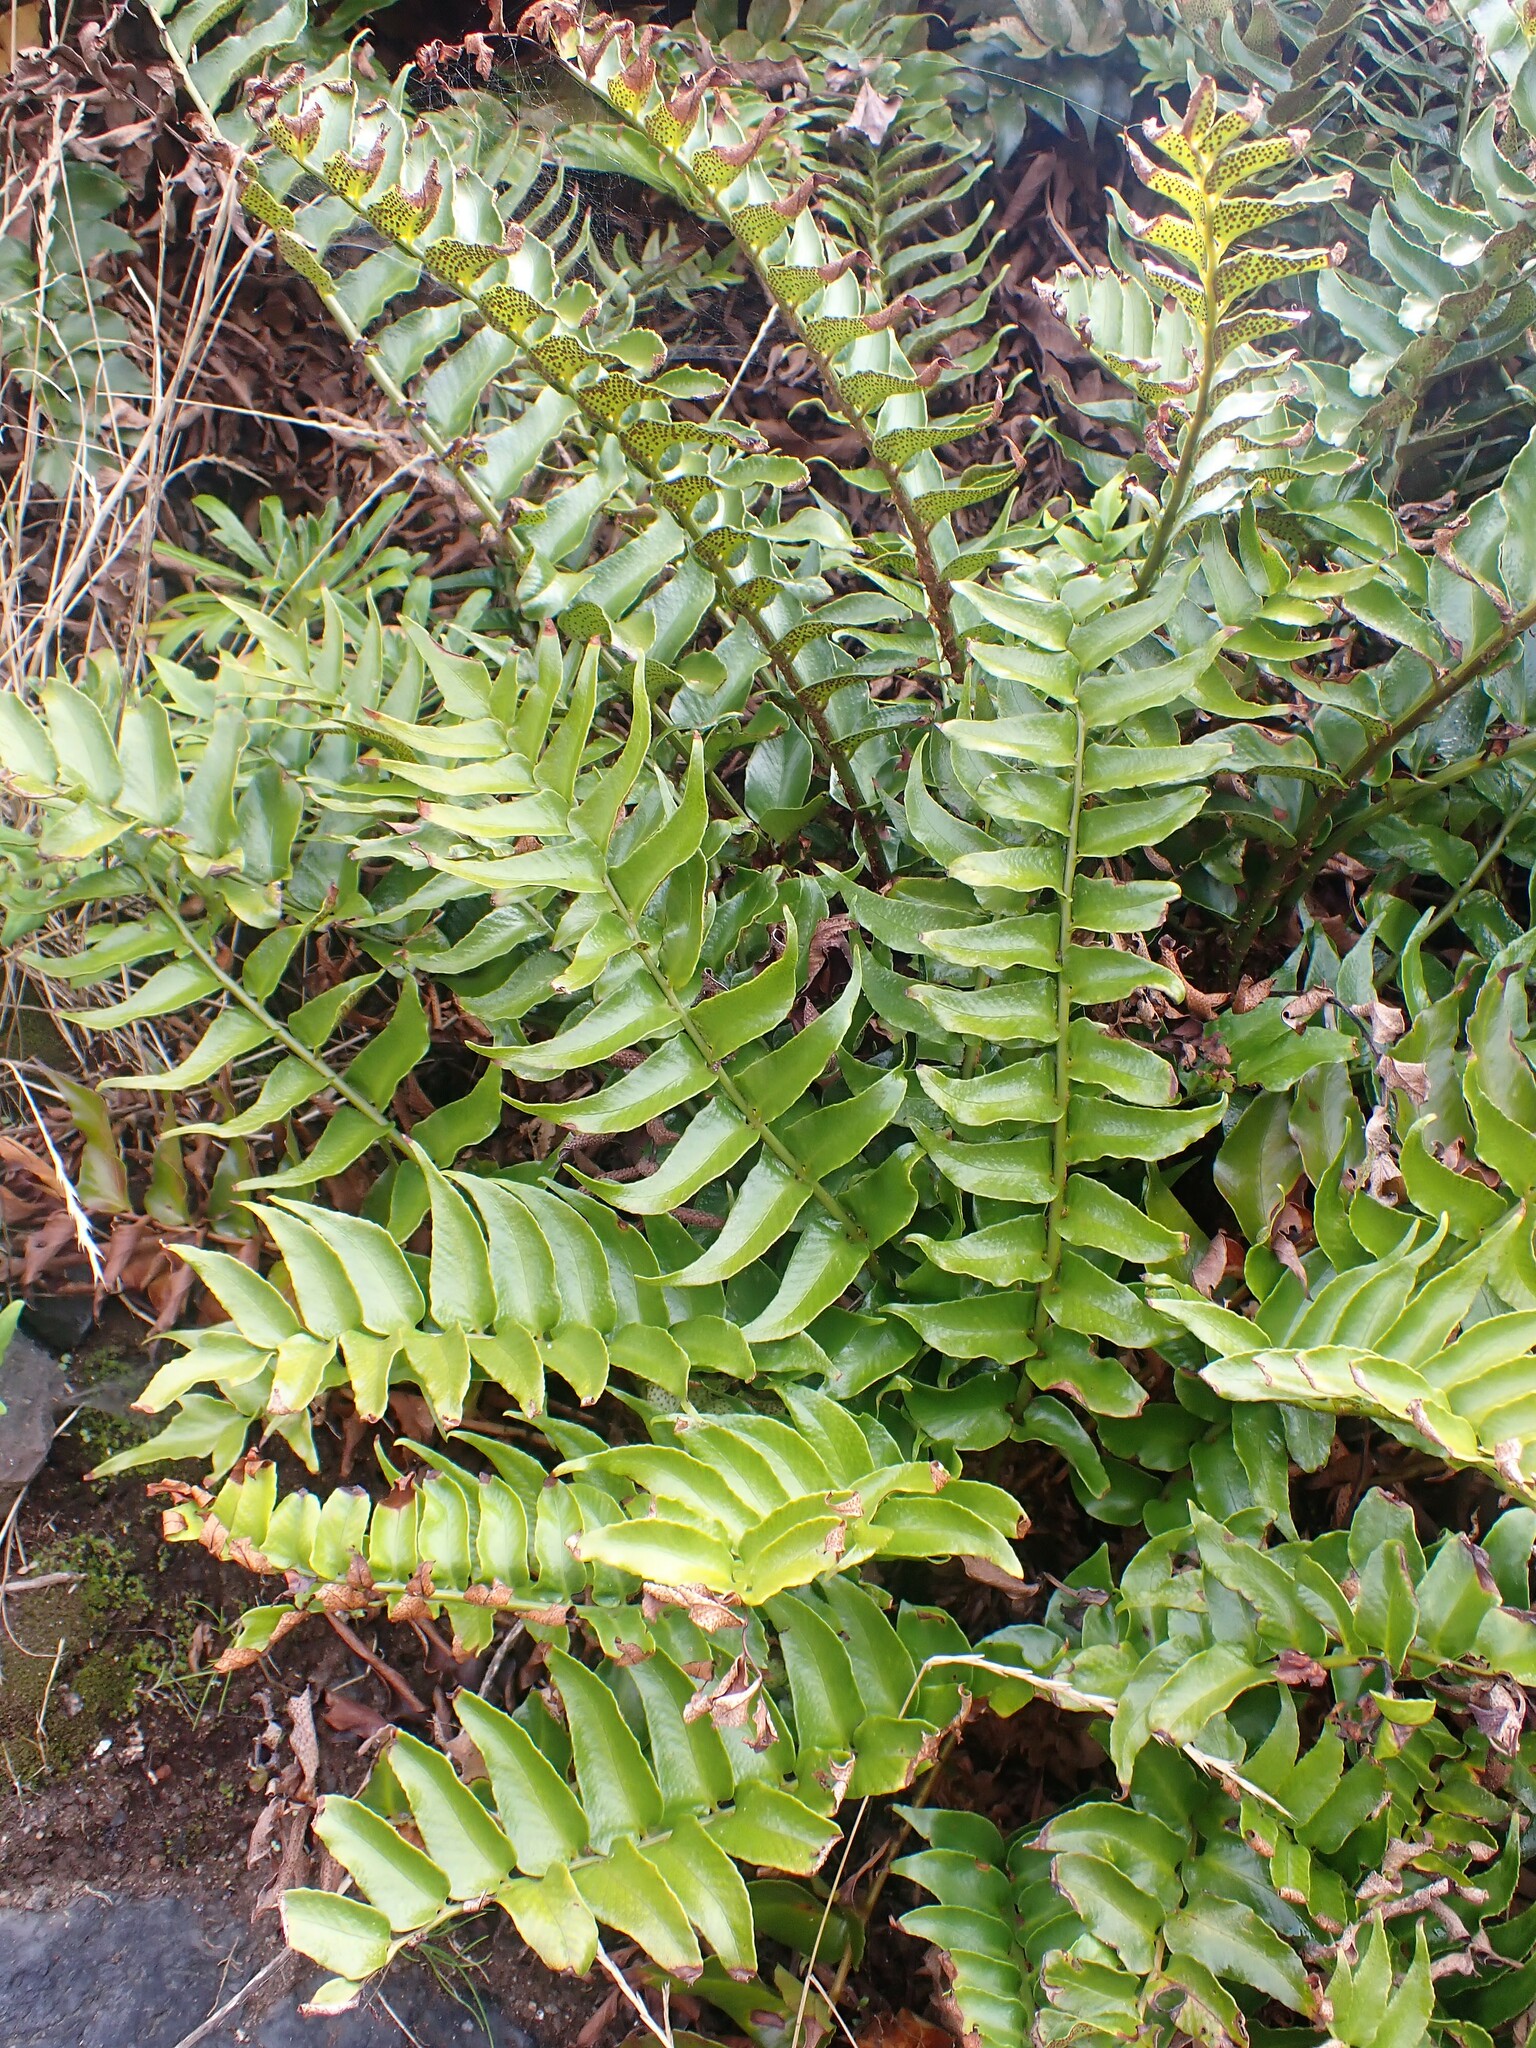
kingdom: Plantae
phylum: Tracheophyta
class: Polypodiopsida
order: Polypodiales
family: Dryopteridaceae
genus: Cyrtomium
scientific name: Cyrtomium falcatum
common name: House holly-fern
